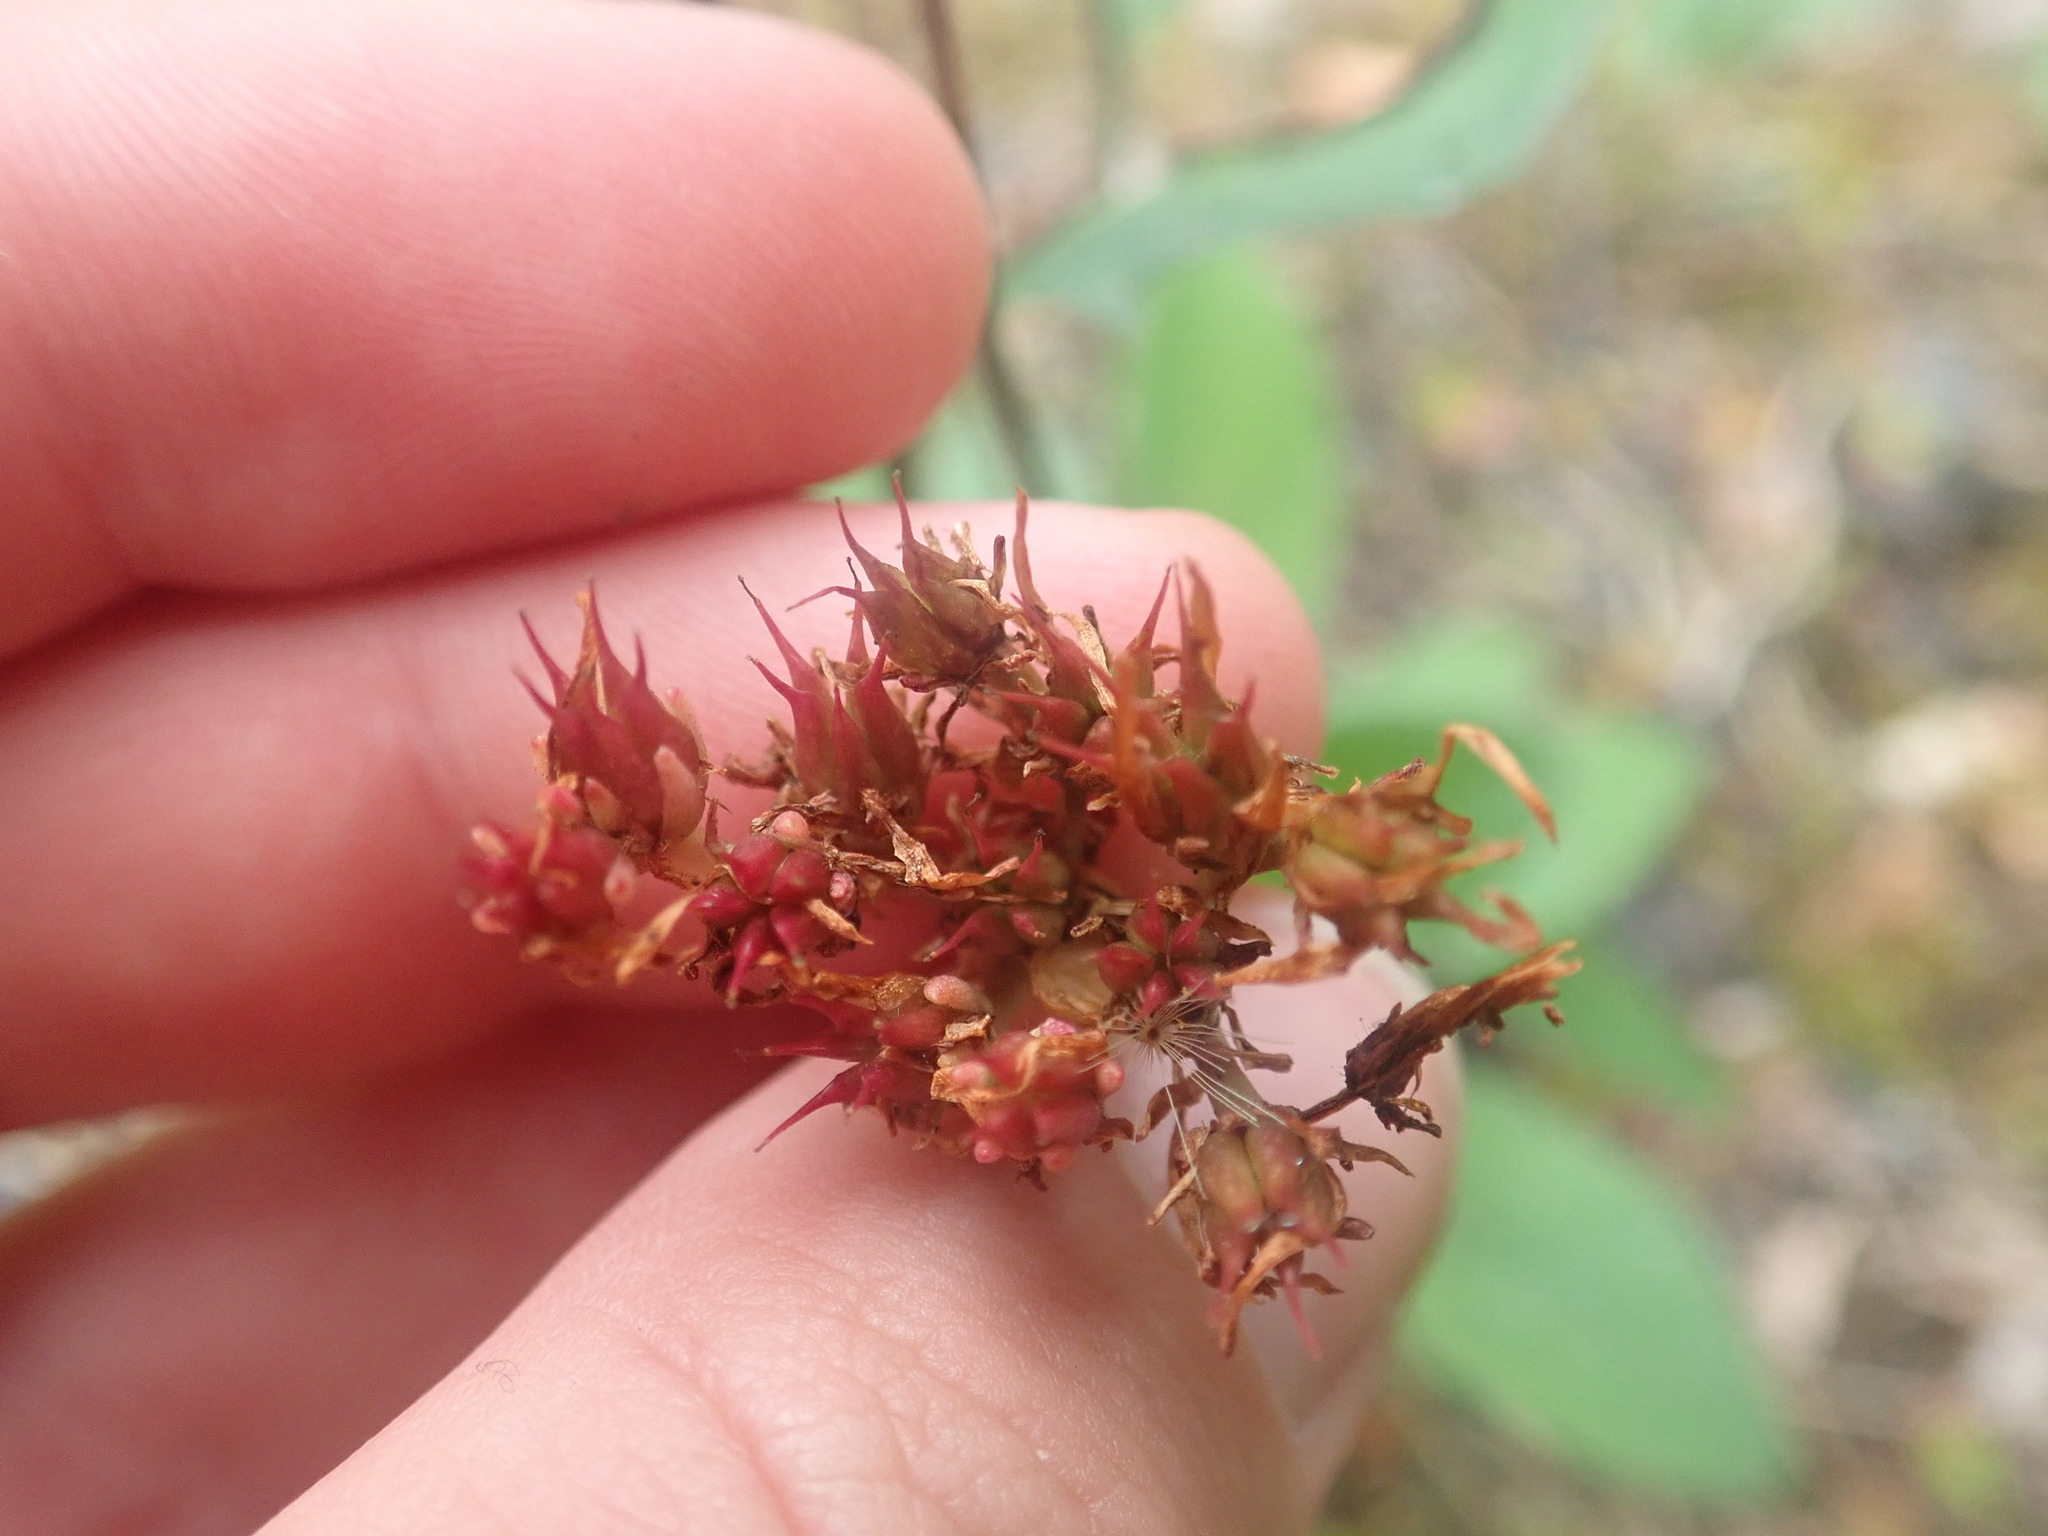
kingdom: Plantae
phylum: Tracheophyta
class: Magnoliopsida
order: Saxifragales
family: Crassulaceae
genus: Phedimus
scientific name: Phedimus spurius
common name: Caucasian stonecrop
